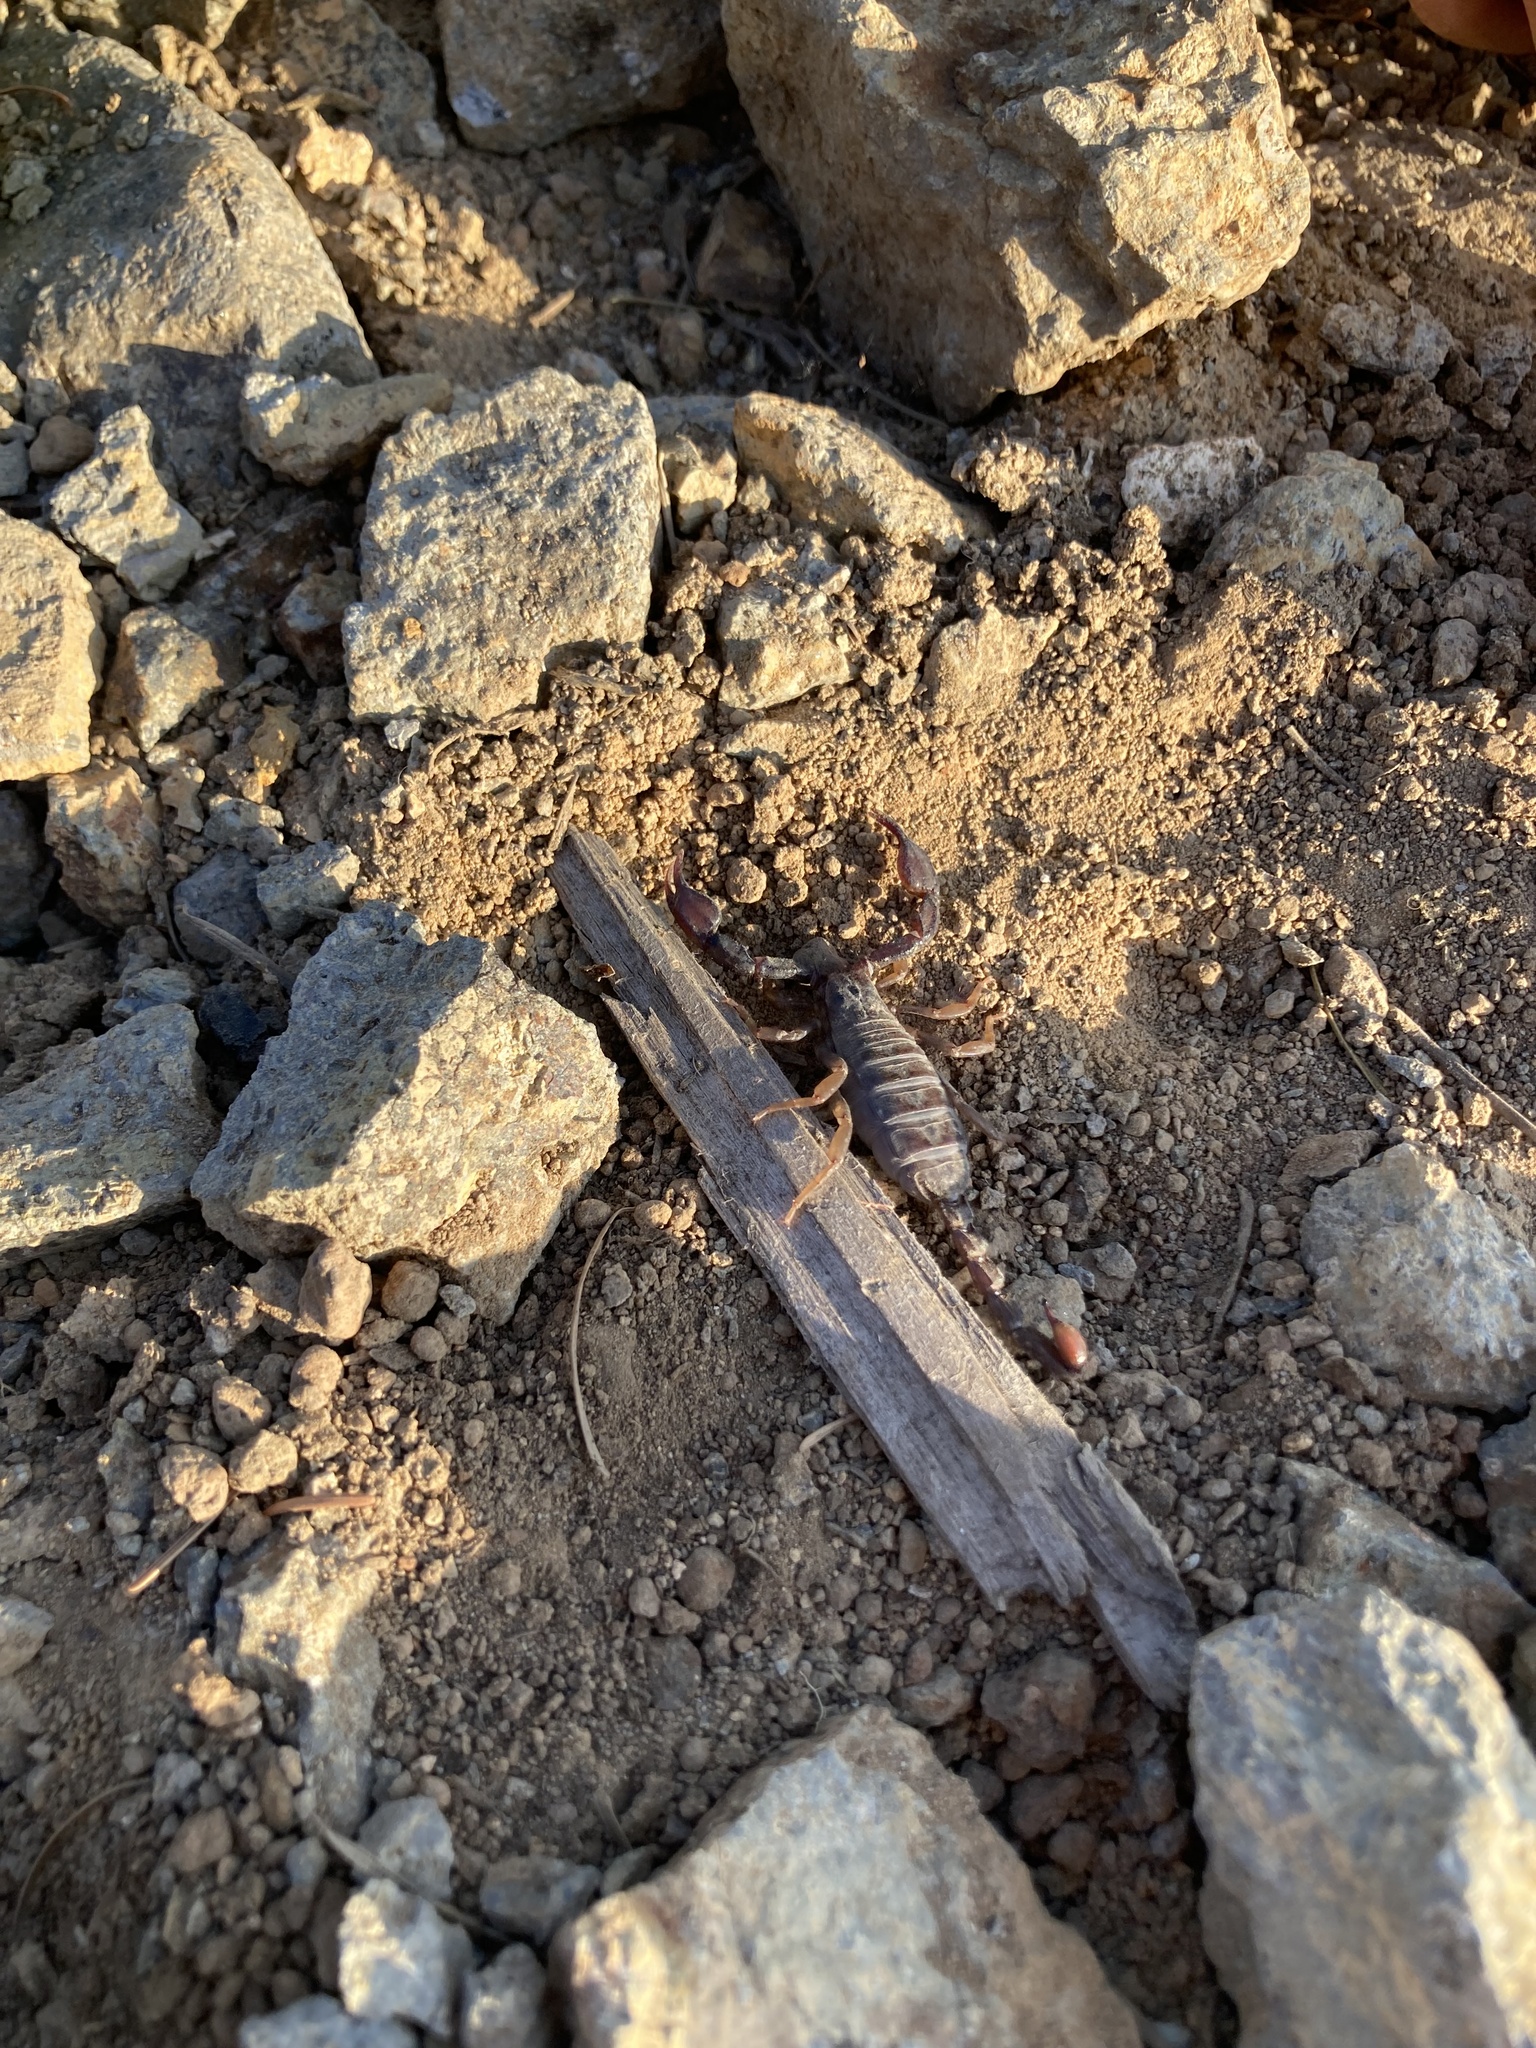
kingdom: Animalia
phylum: Arthropoda
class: Arachnida
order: Scorpiones
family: Chactidae
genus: Uroctonus
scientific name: Uroctonus mordax
